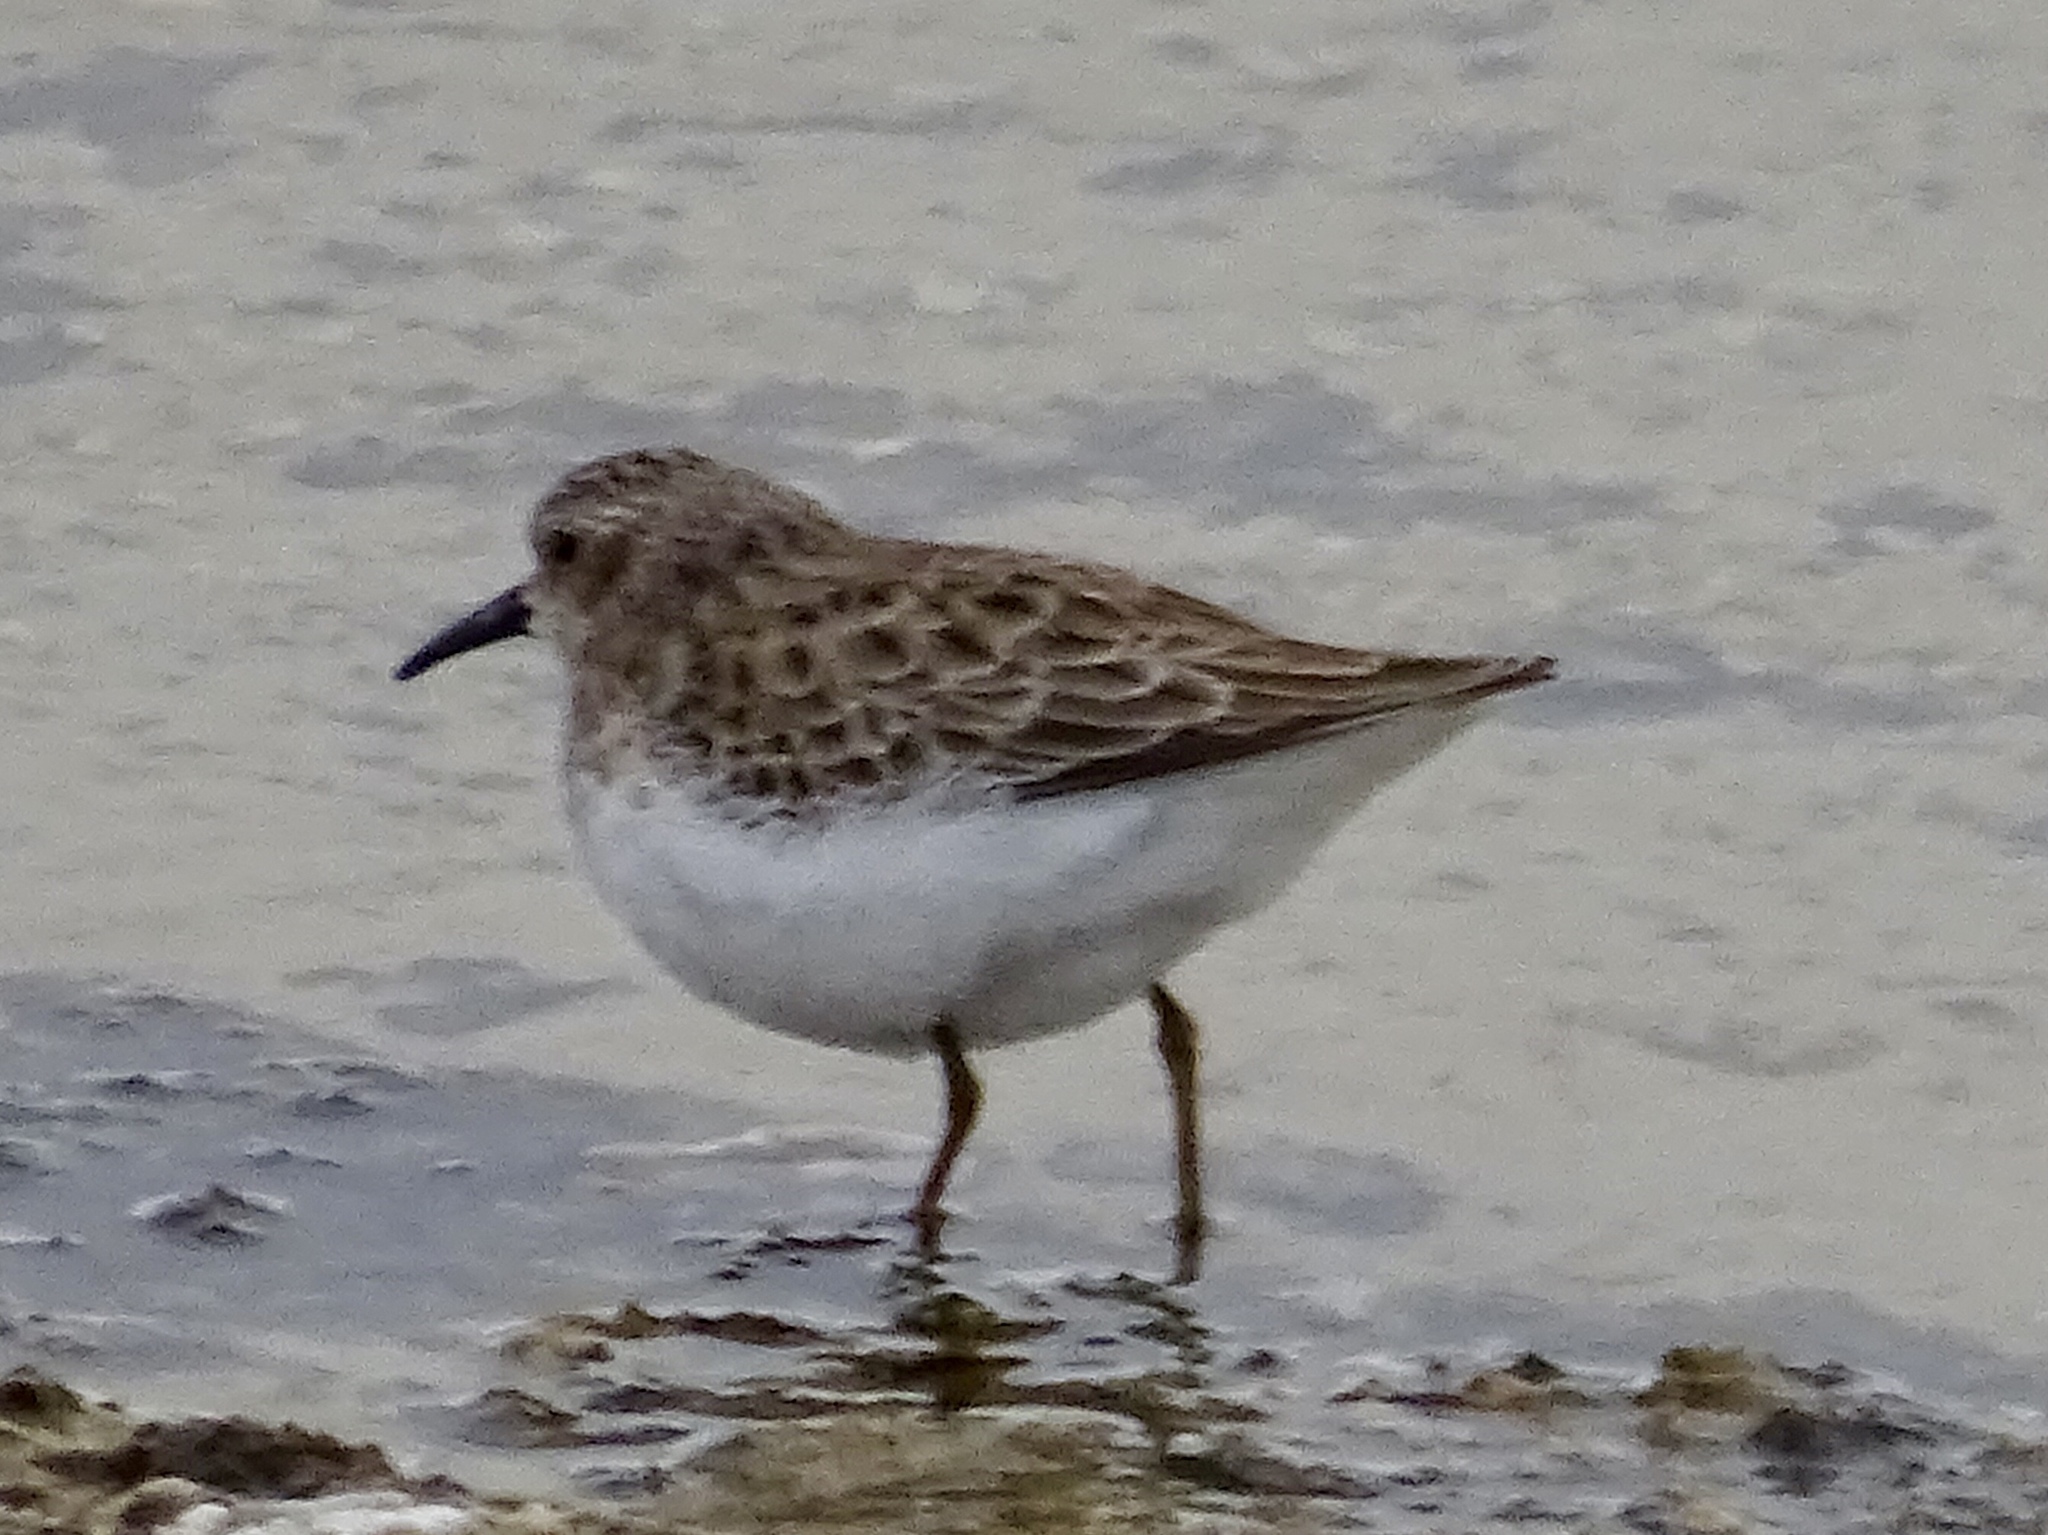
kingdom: Animalia
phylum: Chordata
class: Aves
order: Charadriiformes
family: Scolopacidae
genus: Calidris
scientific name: Calidris minutilla
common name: Least sandpiper
